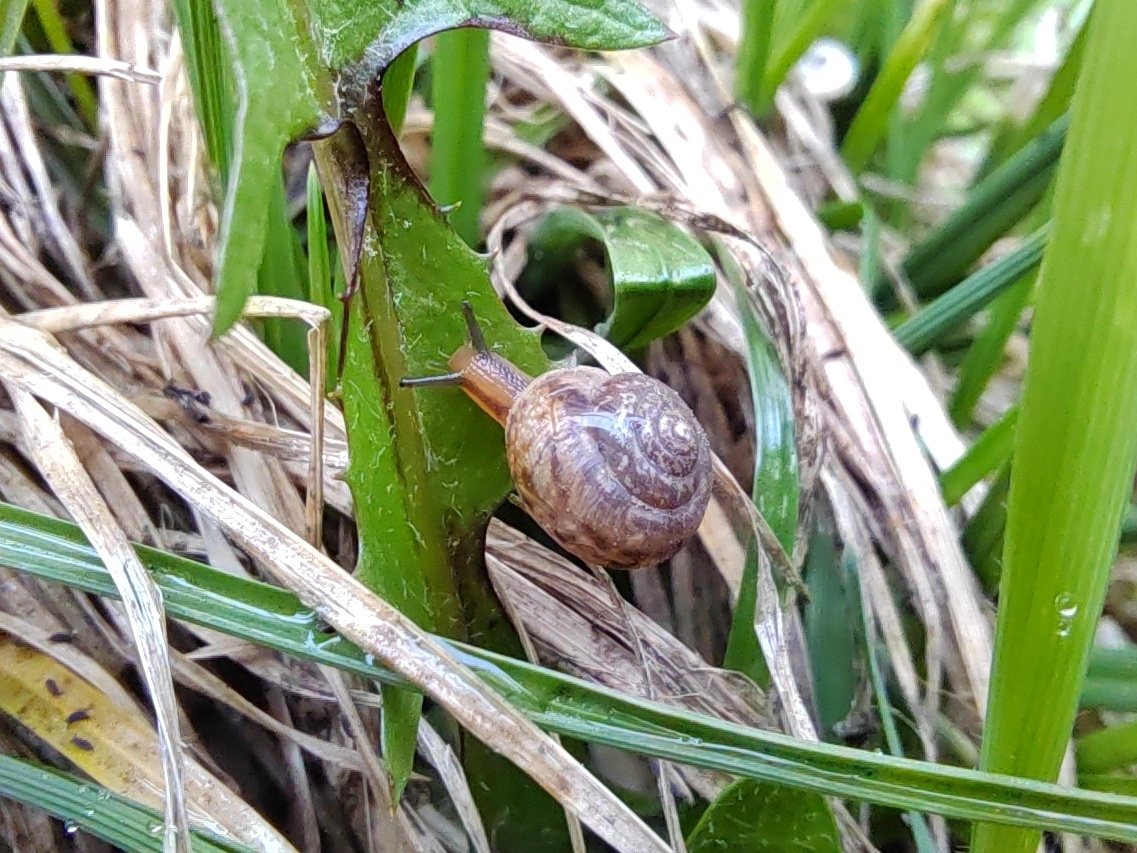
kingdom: Animalia
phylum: Mollusca
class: Gastropoda
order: Stylommatophora
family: Hygromiidae
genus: Stenomphalia
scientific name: Stenomphalia selecta
